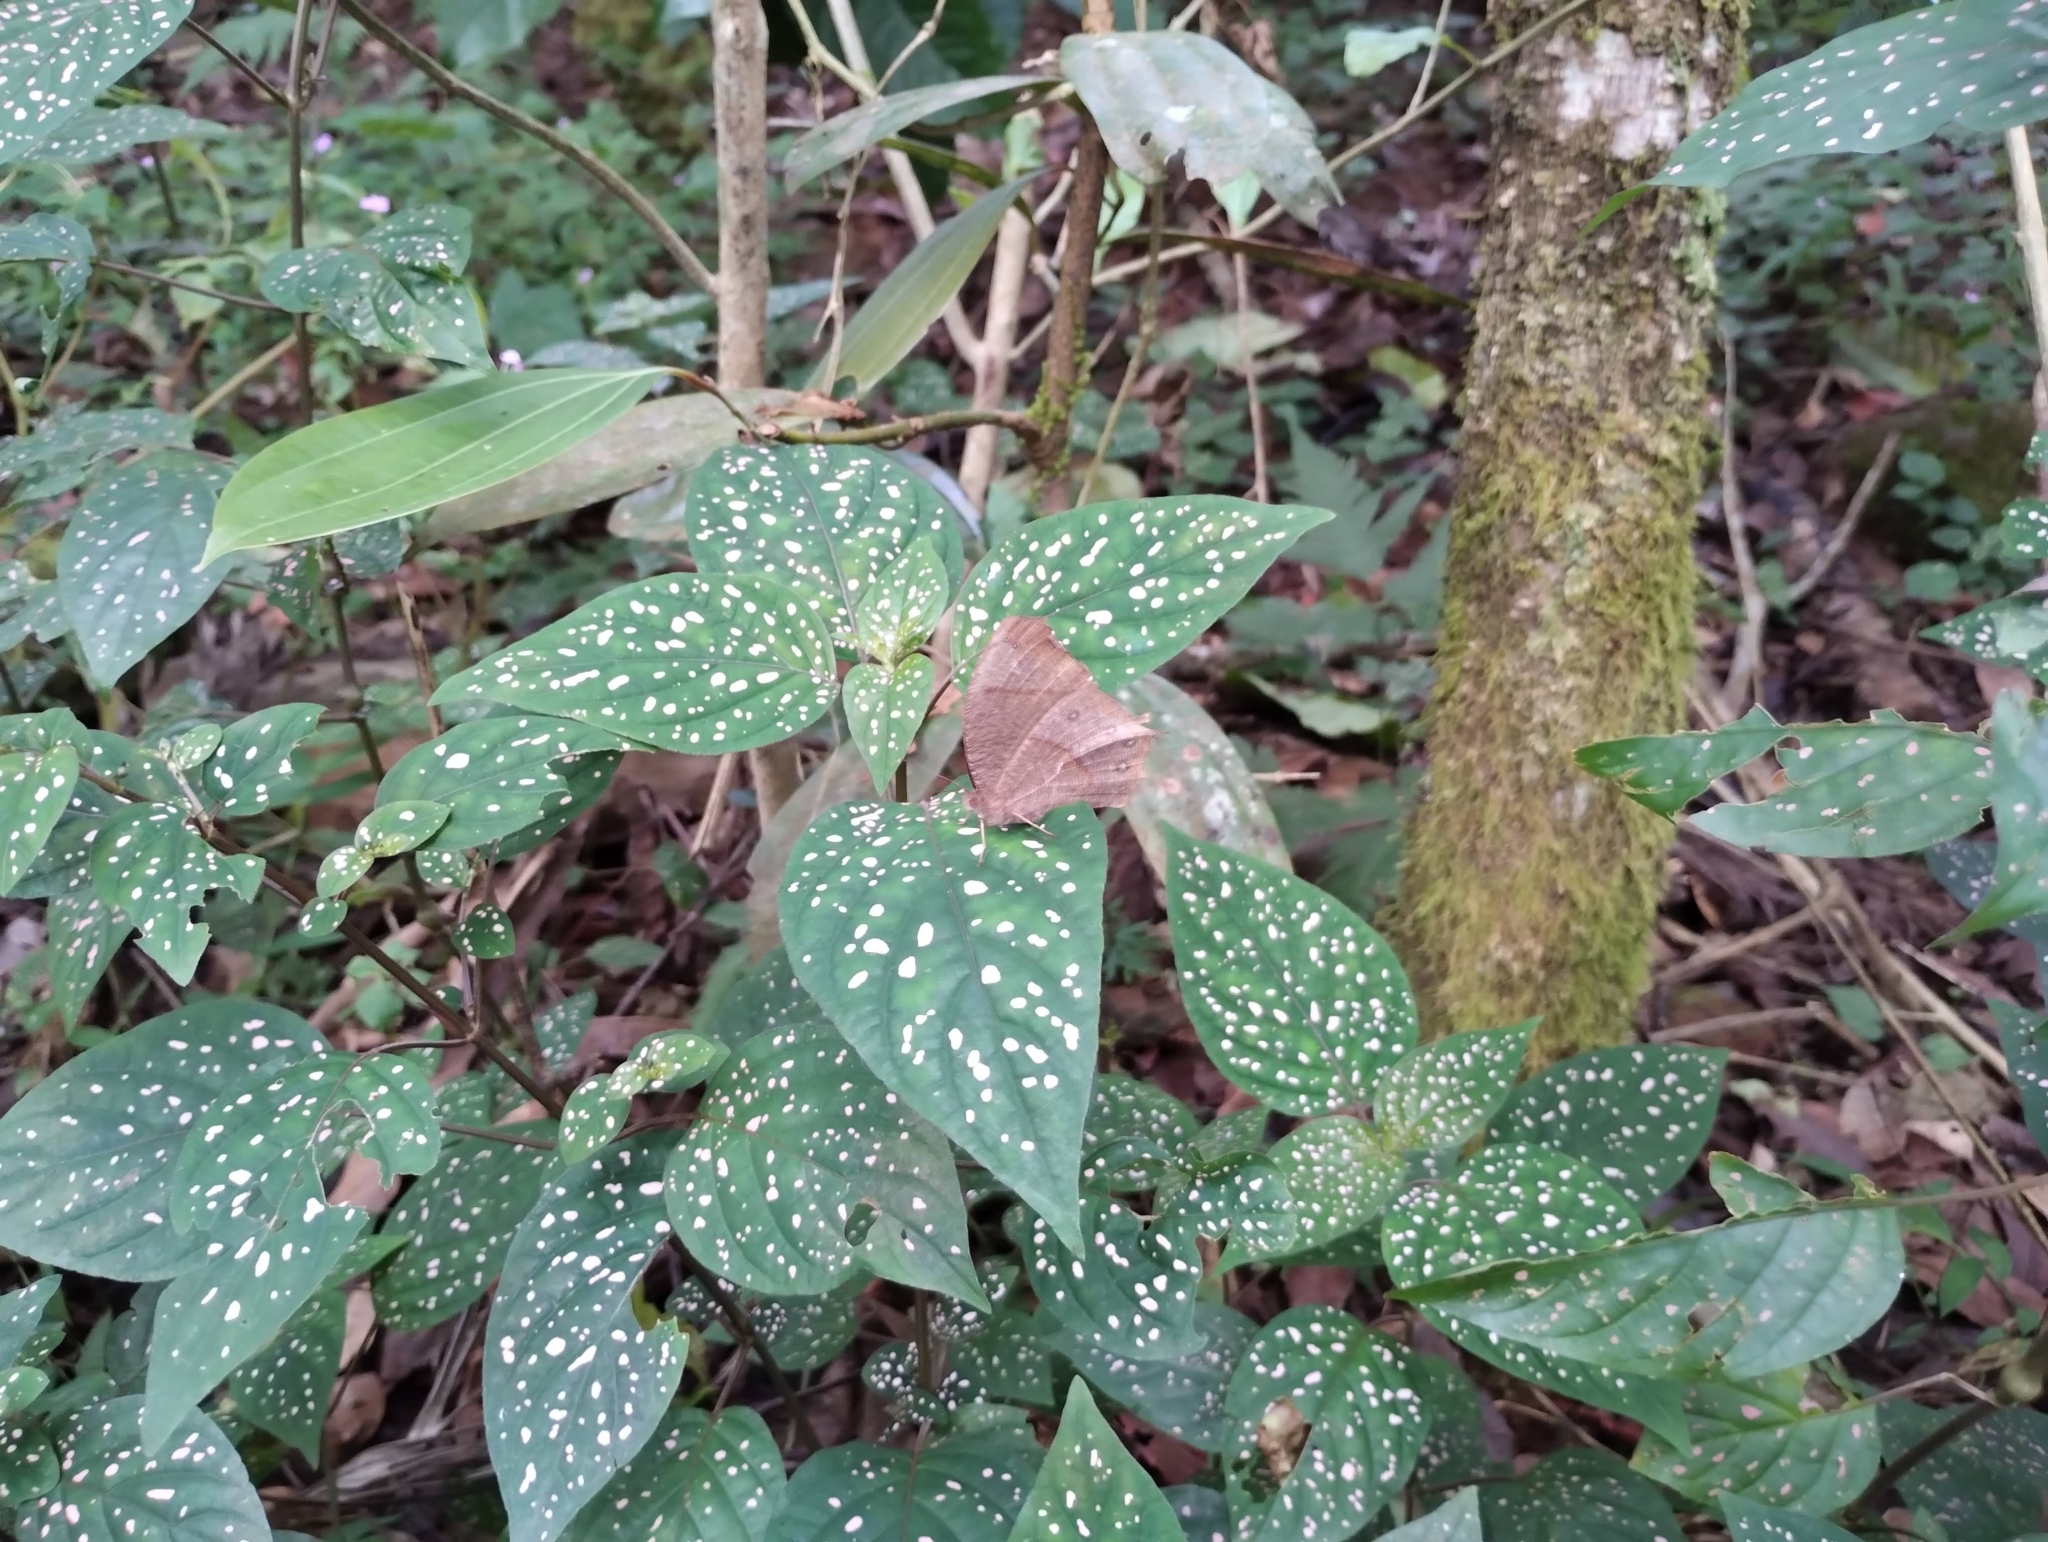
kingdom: Animalia
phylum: Arthropoda
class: Insecta
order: Lepidoptera
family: Nymphalidae
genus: Melanitis
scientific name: Melanitis leda
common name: Twilight brown
